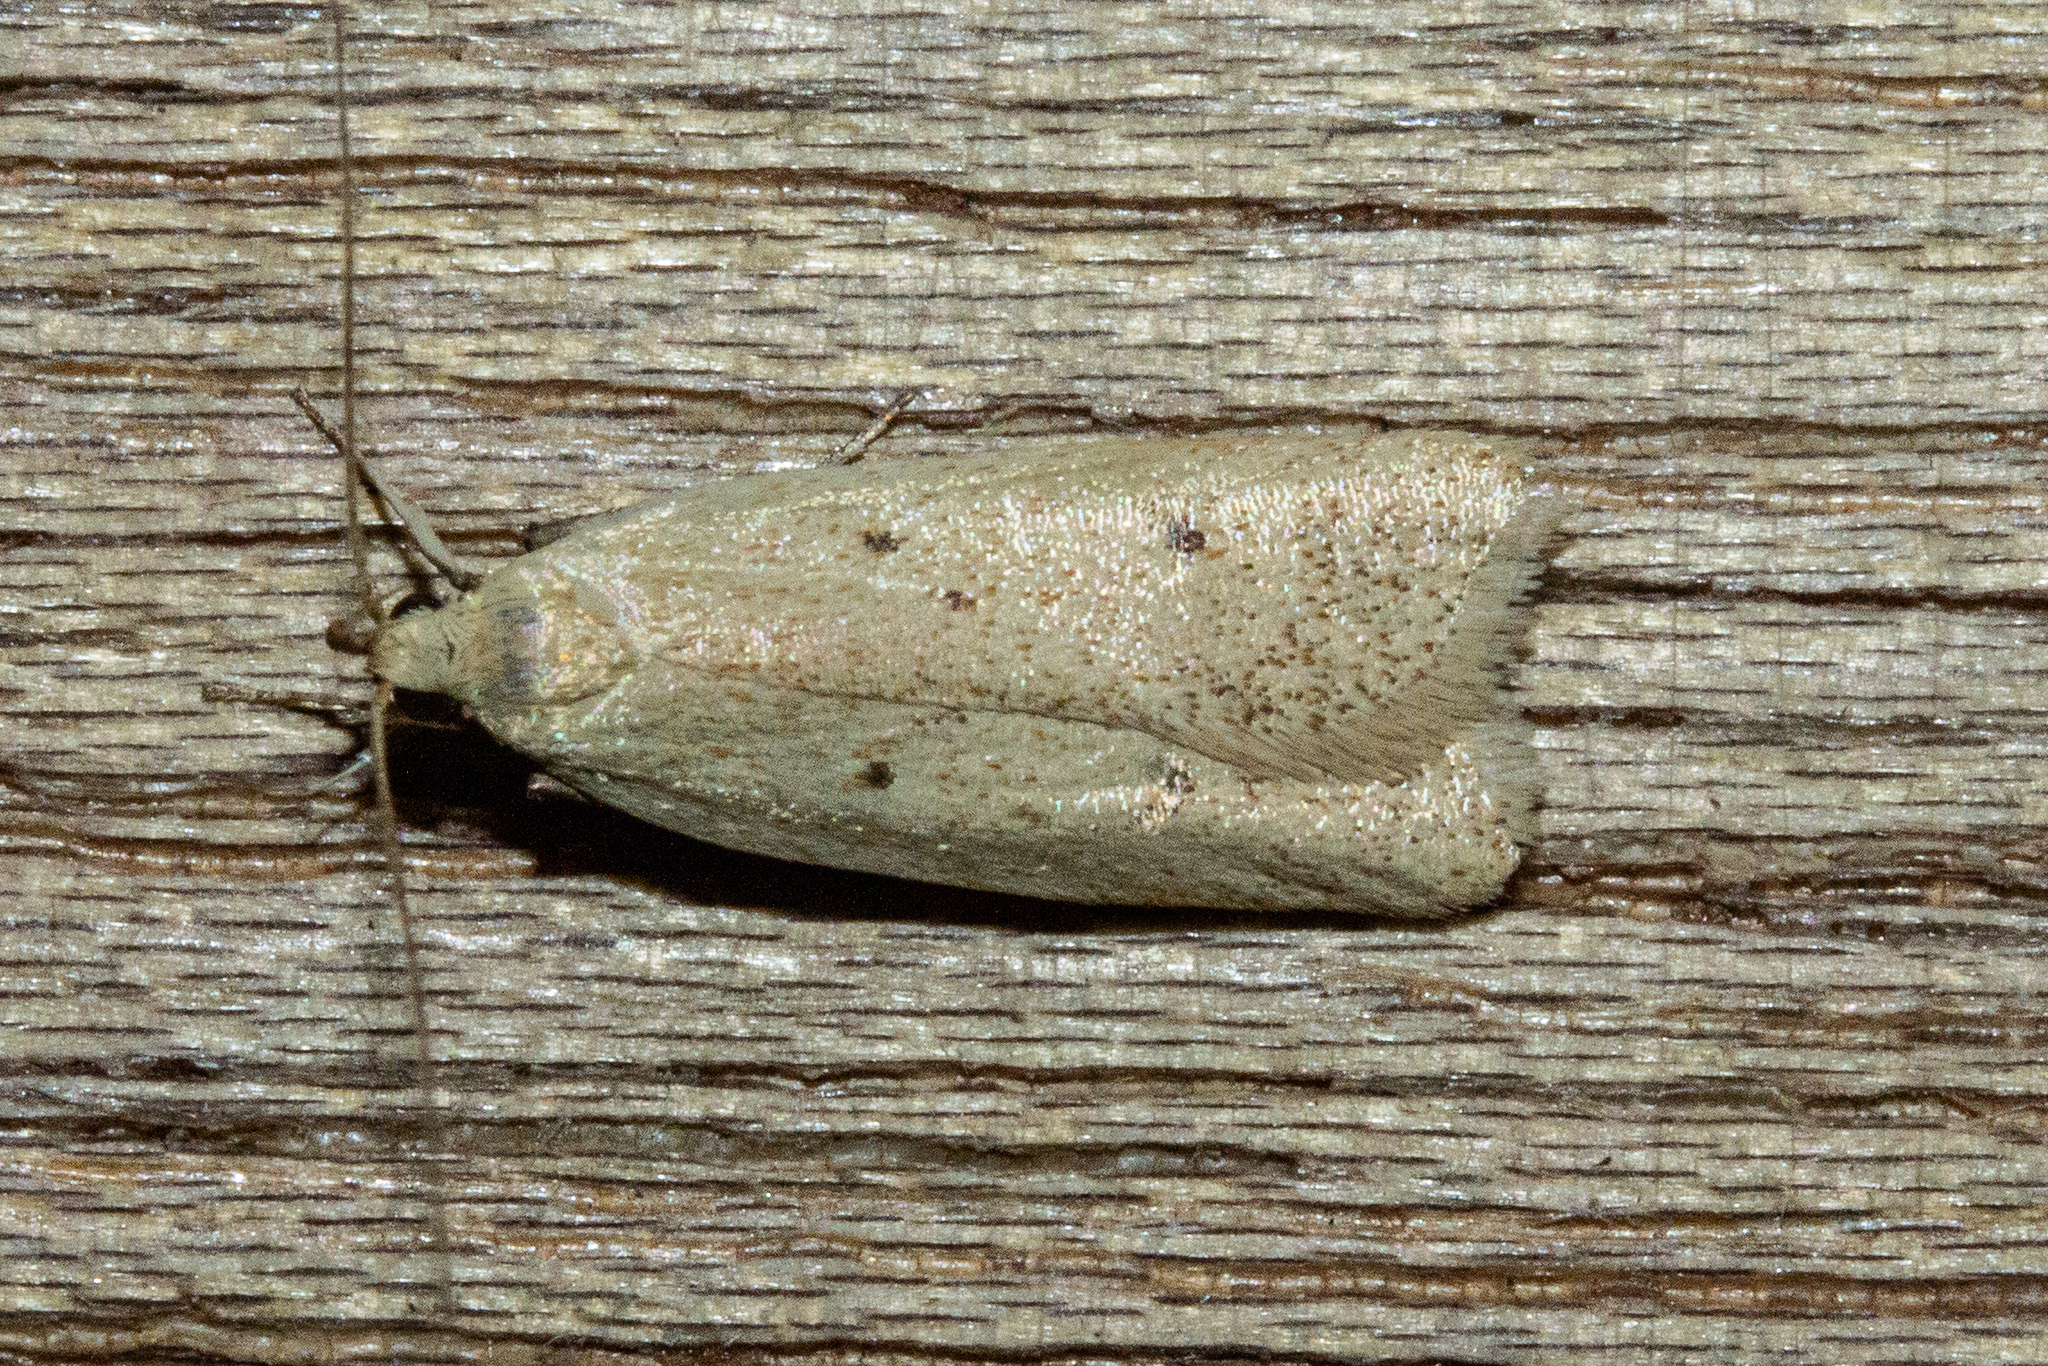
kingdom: Animalia
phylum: Arthropoda
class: Insecta
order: Lepidoptera
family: Oecophoridae
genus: Gymnobathra
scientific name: Gymnobathra sarcoxantha
